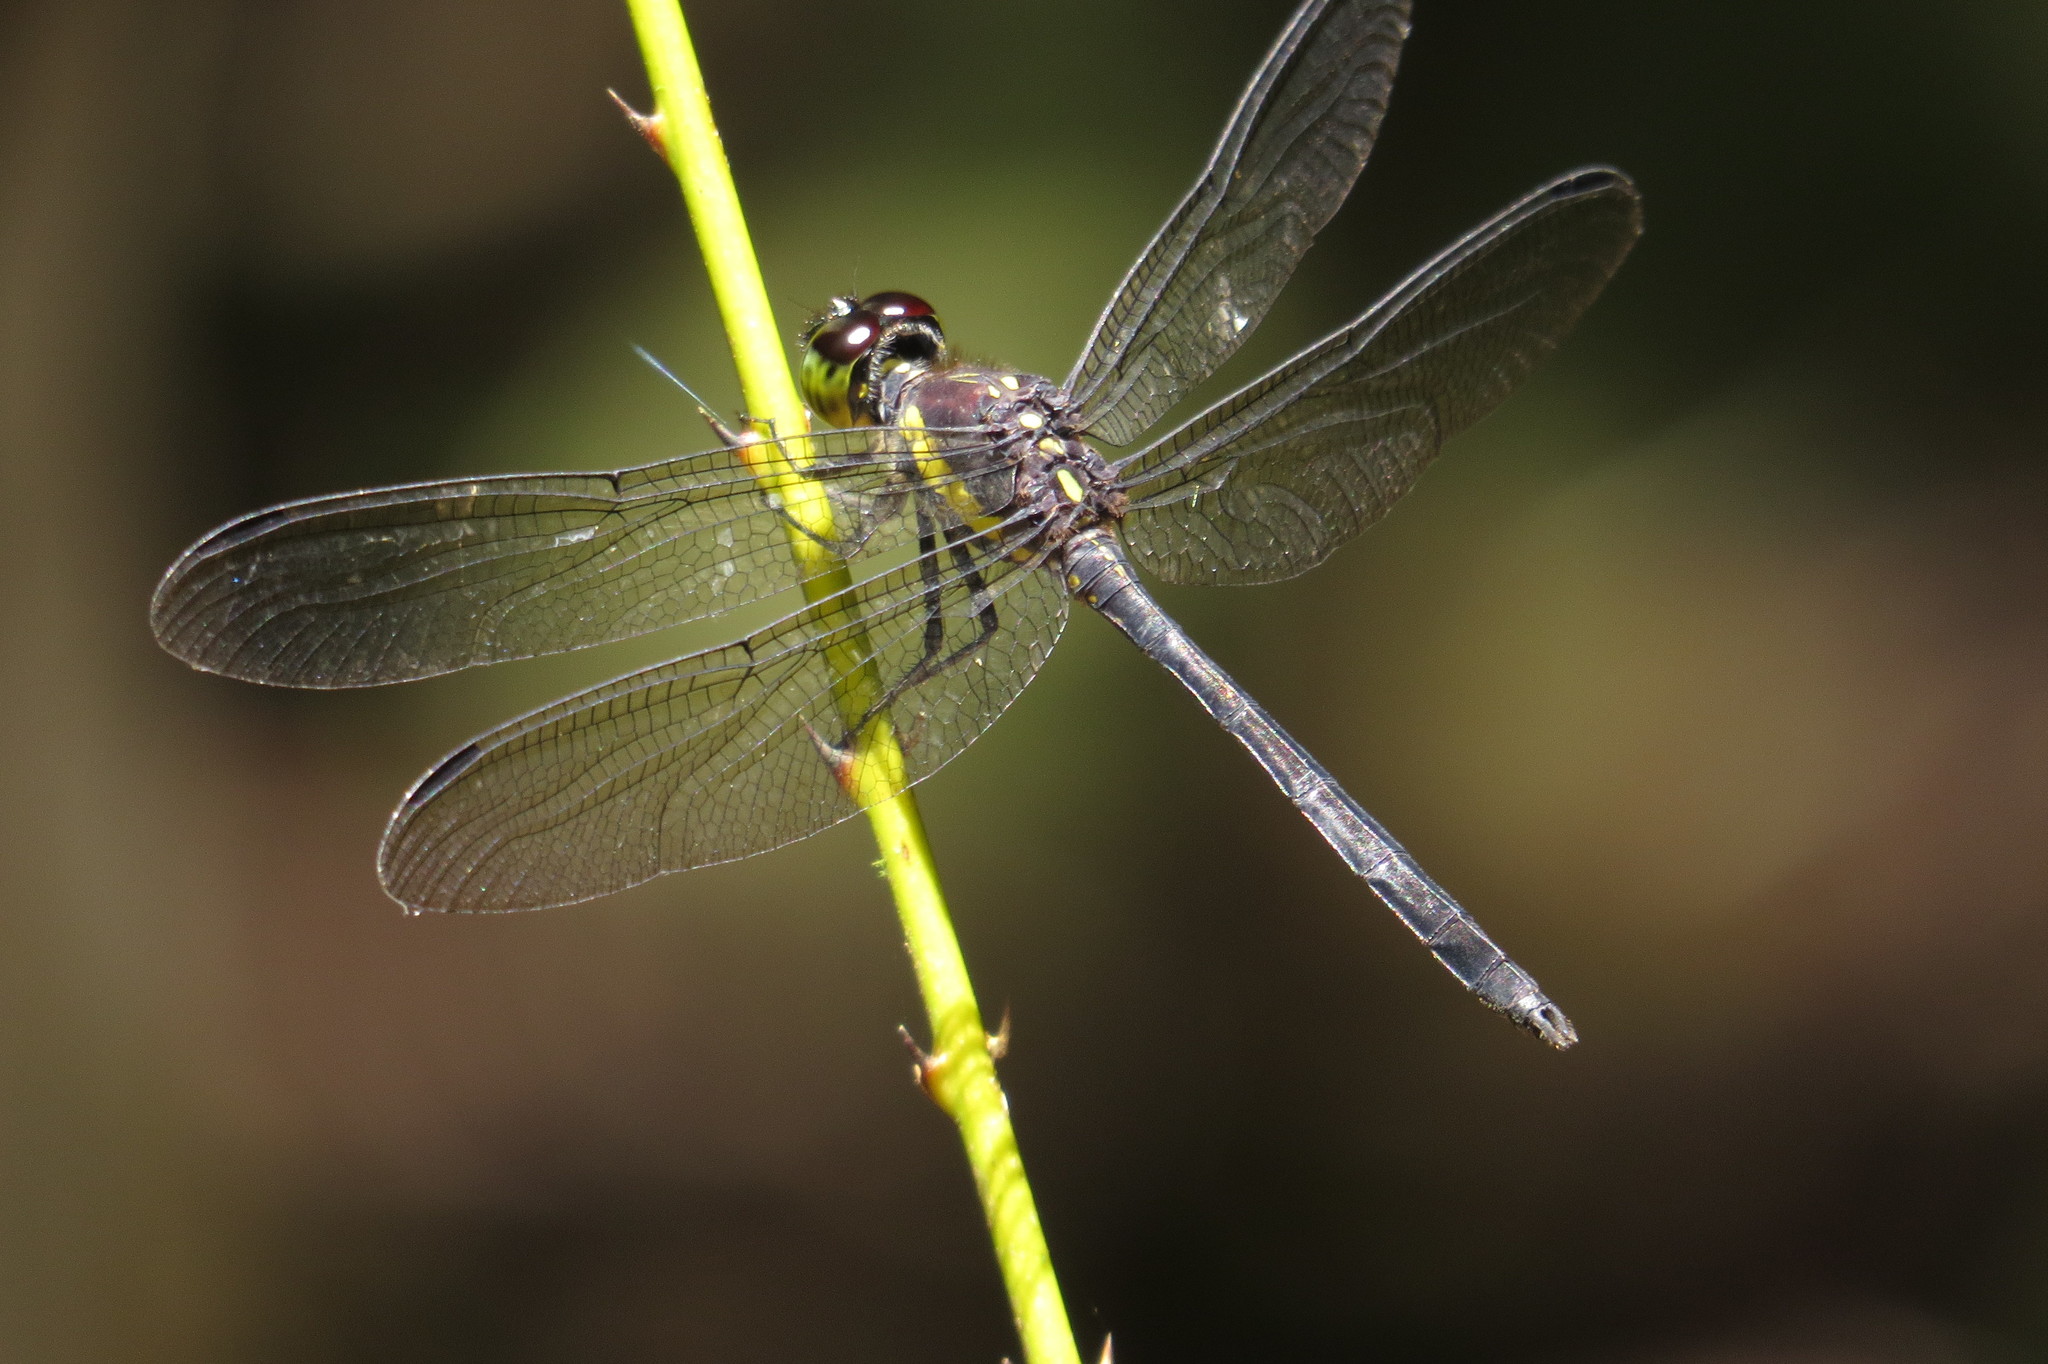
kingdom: Animalia
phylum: Arthropoda
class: Insecta
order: Odonata
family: Libellulidae
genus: Agrionoptera
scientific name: Agrionoptera longitudinalis
